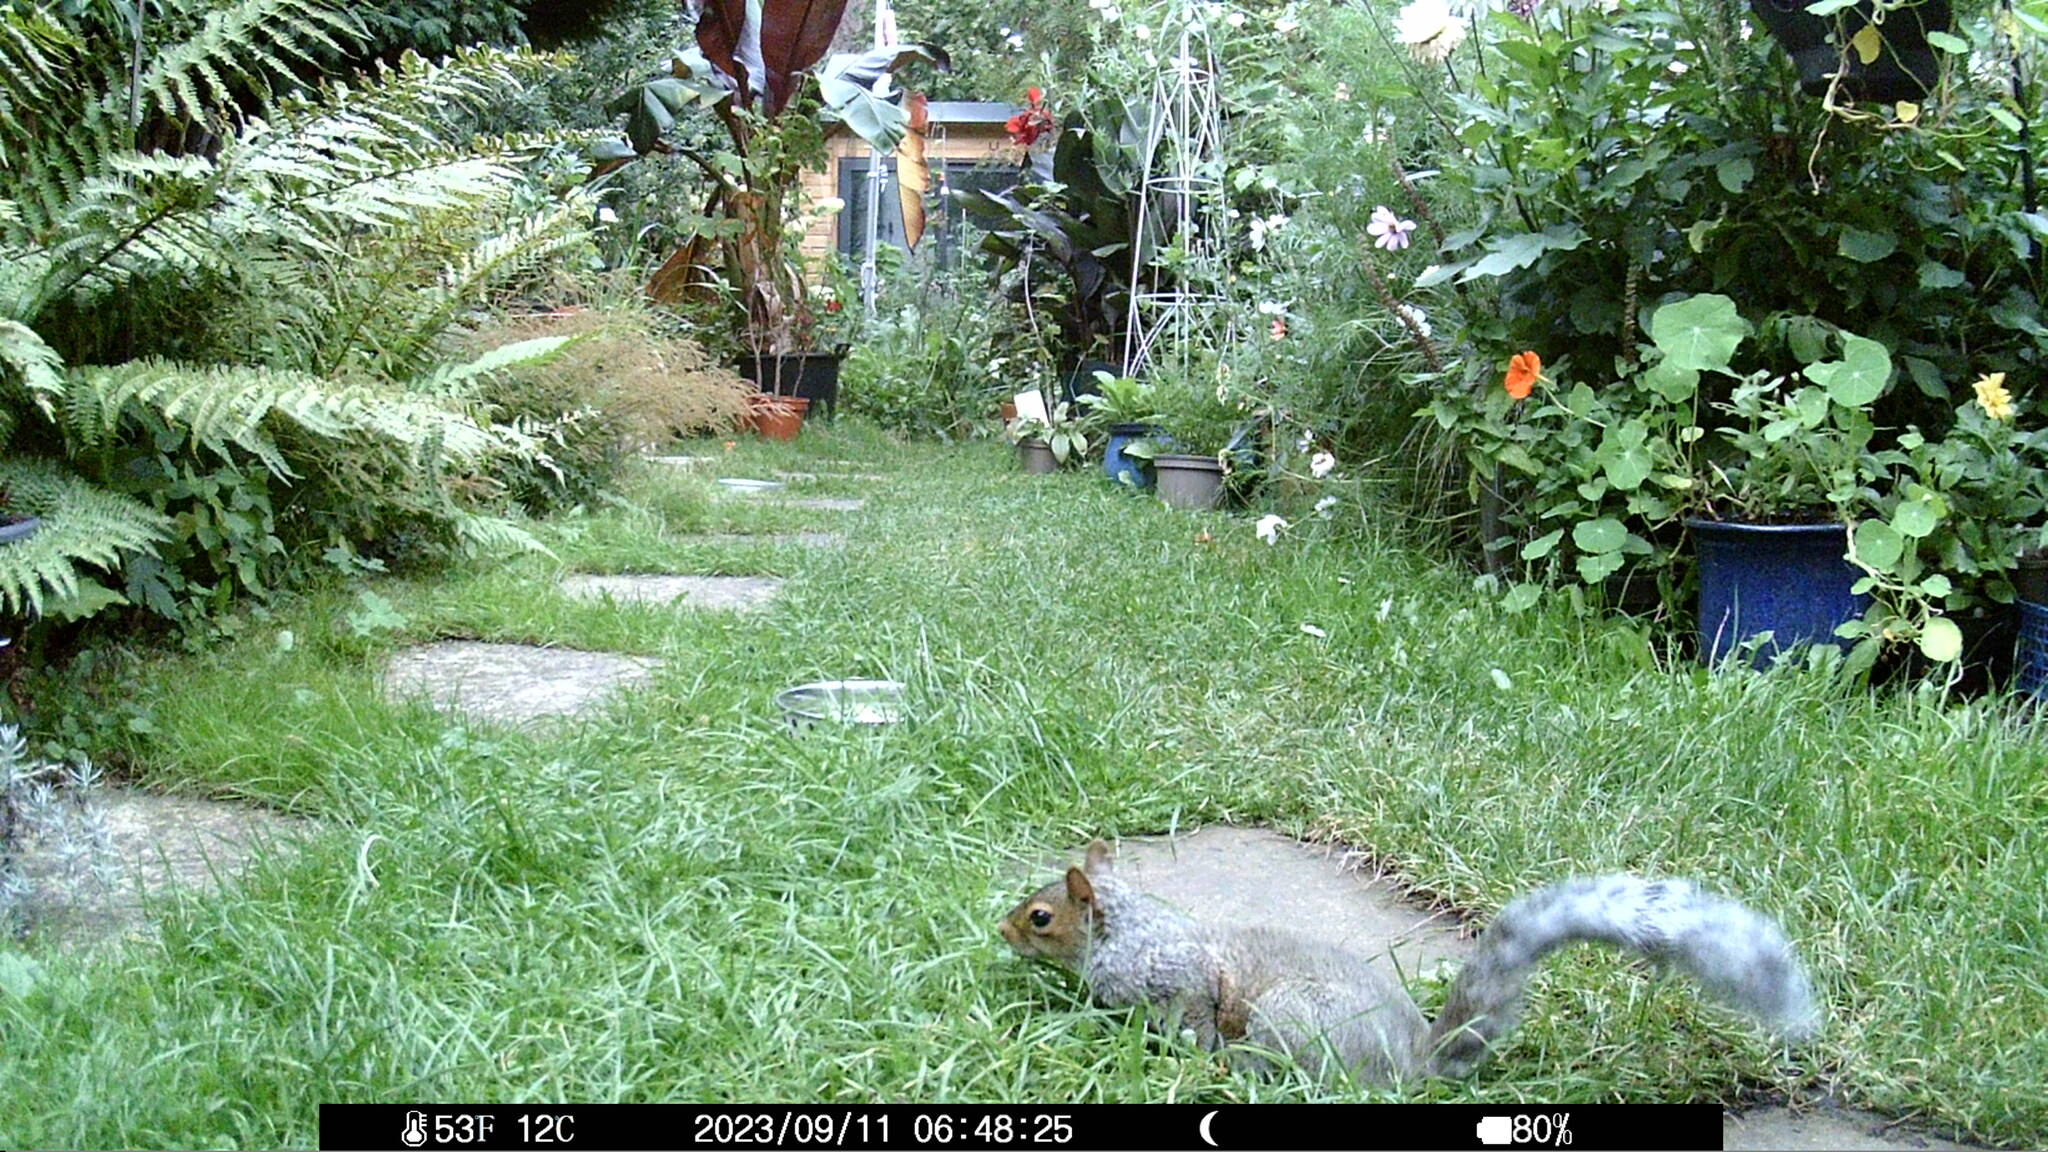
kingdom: Animalia
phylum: Chordata
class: Mammalia
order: Rodentia
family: Sciuridae
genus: Sciurus
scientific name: Sciurus carolinensis
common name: Eastern gray squirrel
